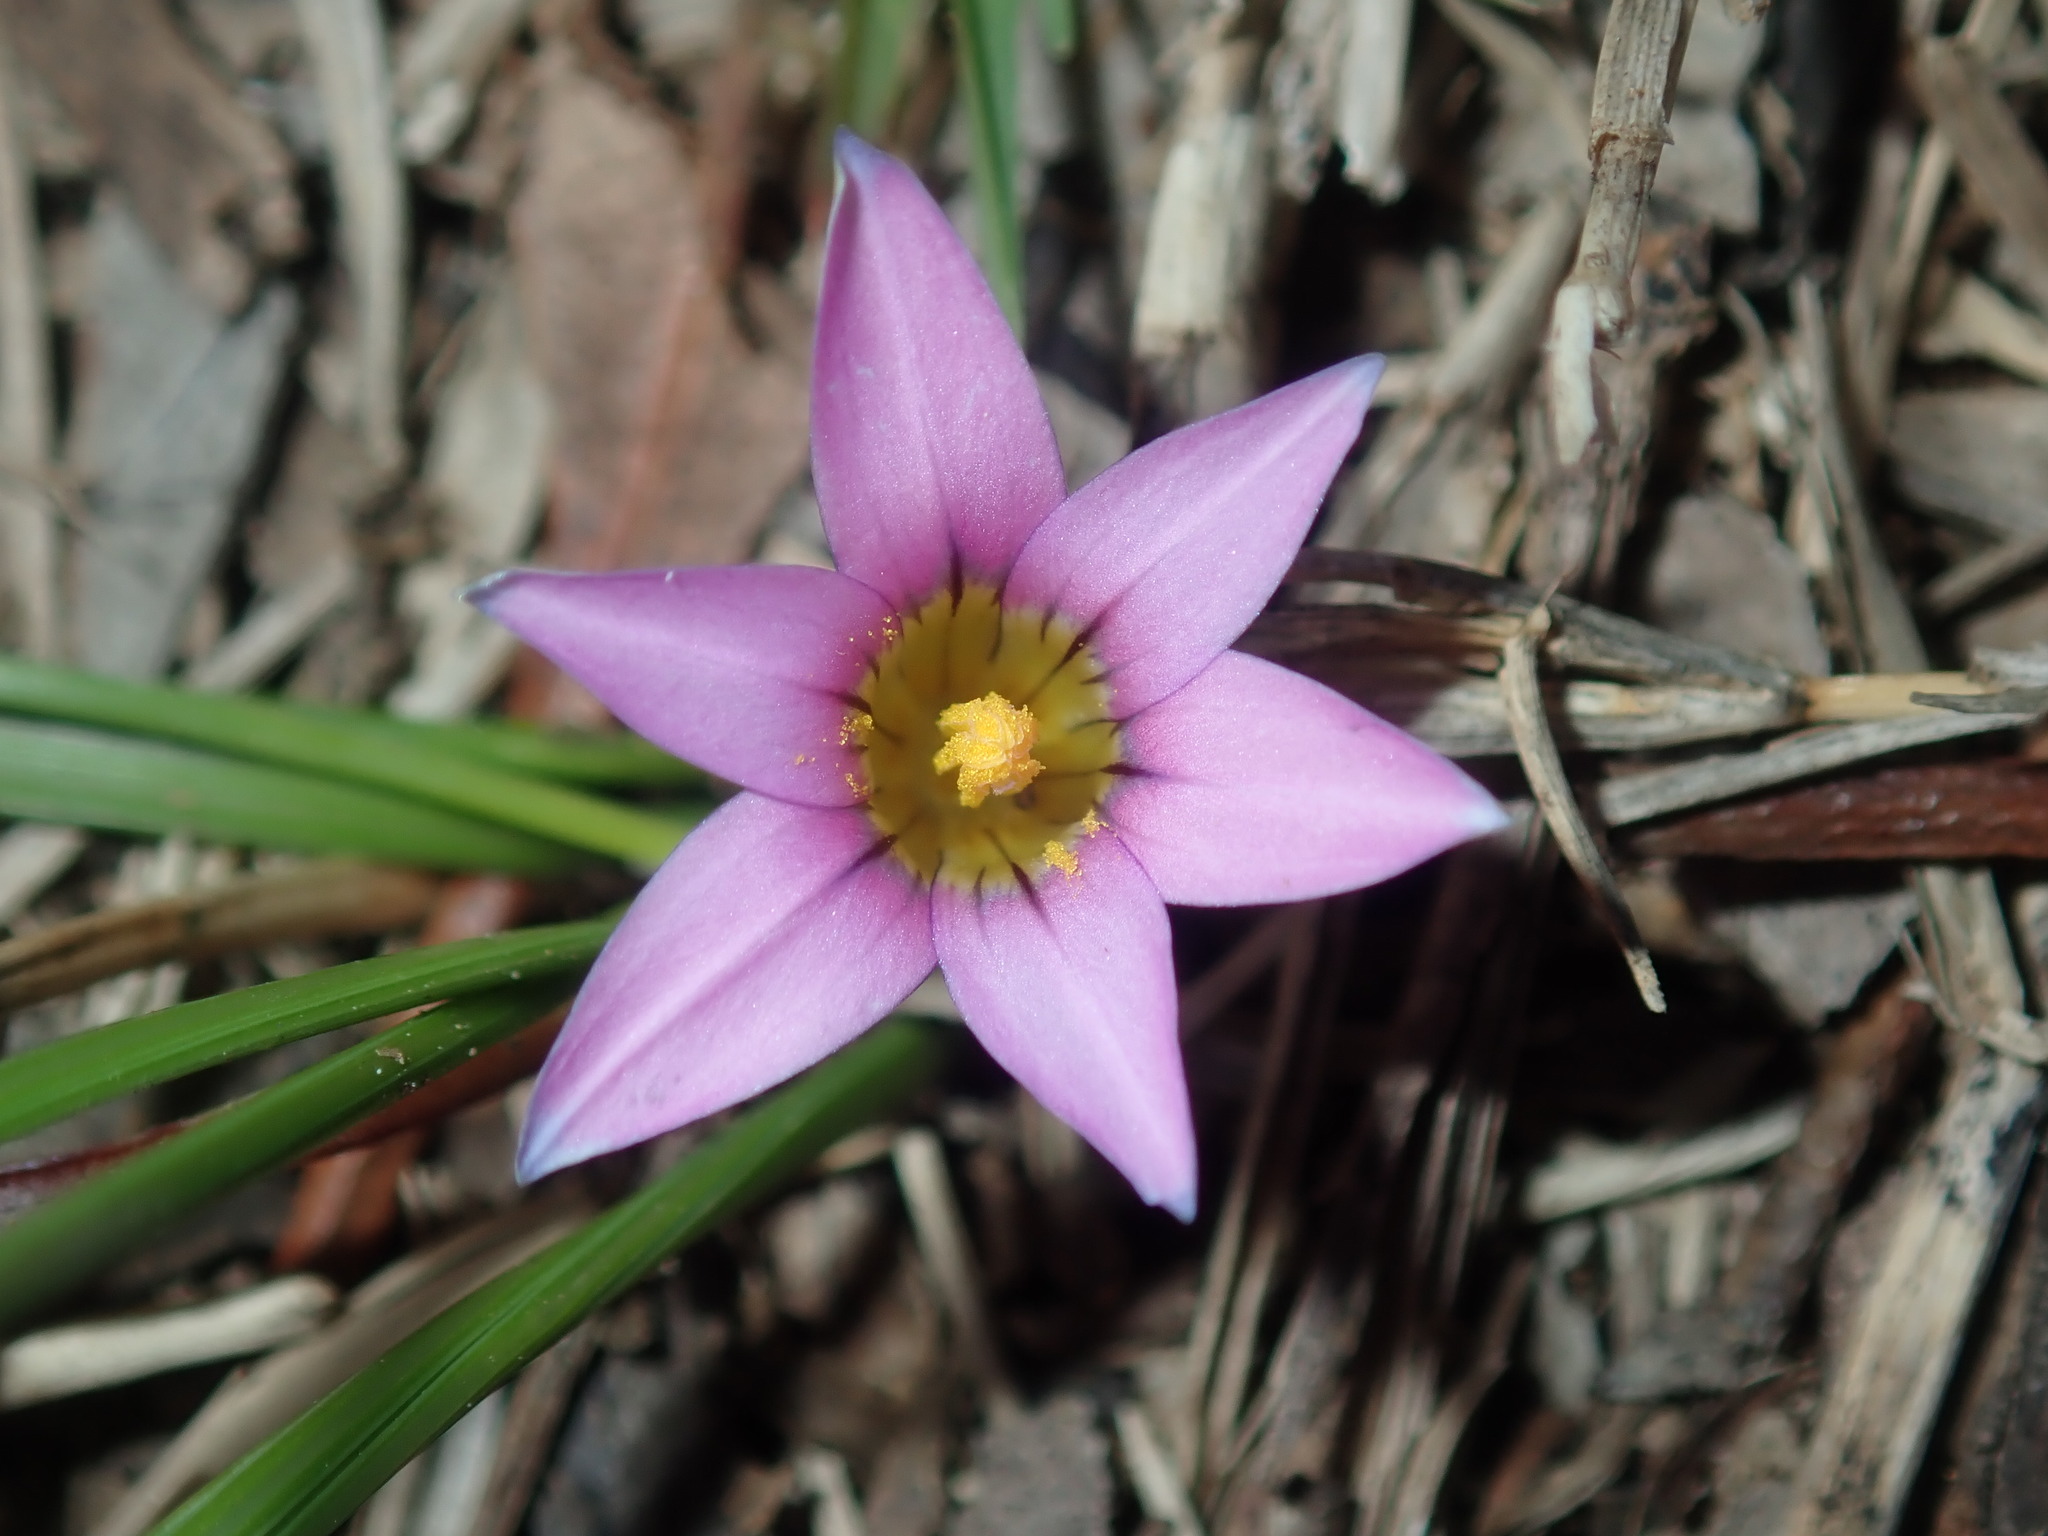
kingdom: Plantae
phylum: Tracheophyta
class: Liliopsida
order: Asparagales
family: Iridaceae
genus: Romulea
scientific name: Romulea rosea
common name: Oniongrass
